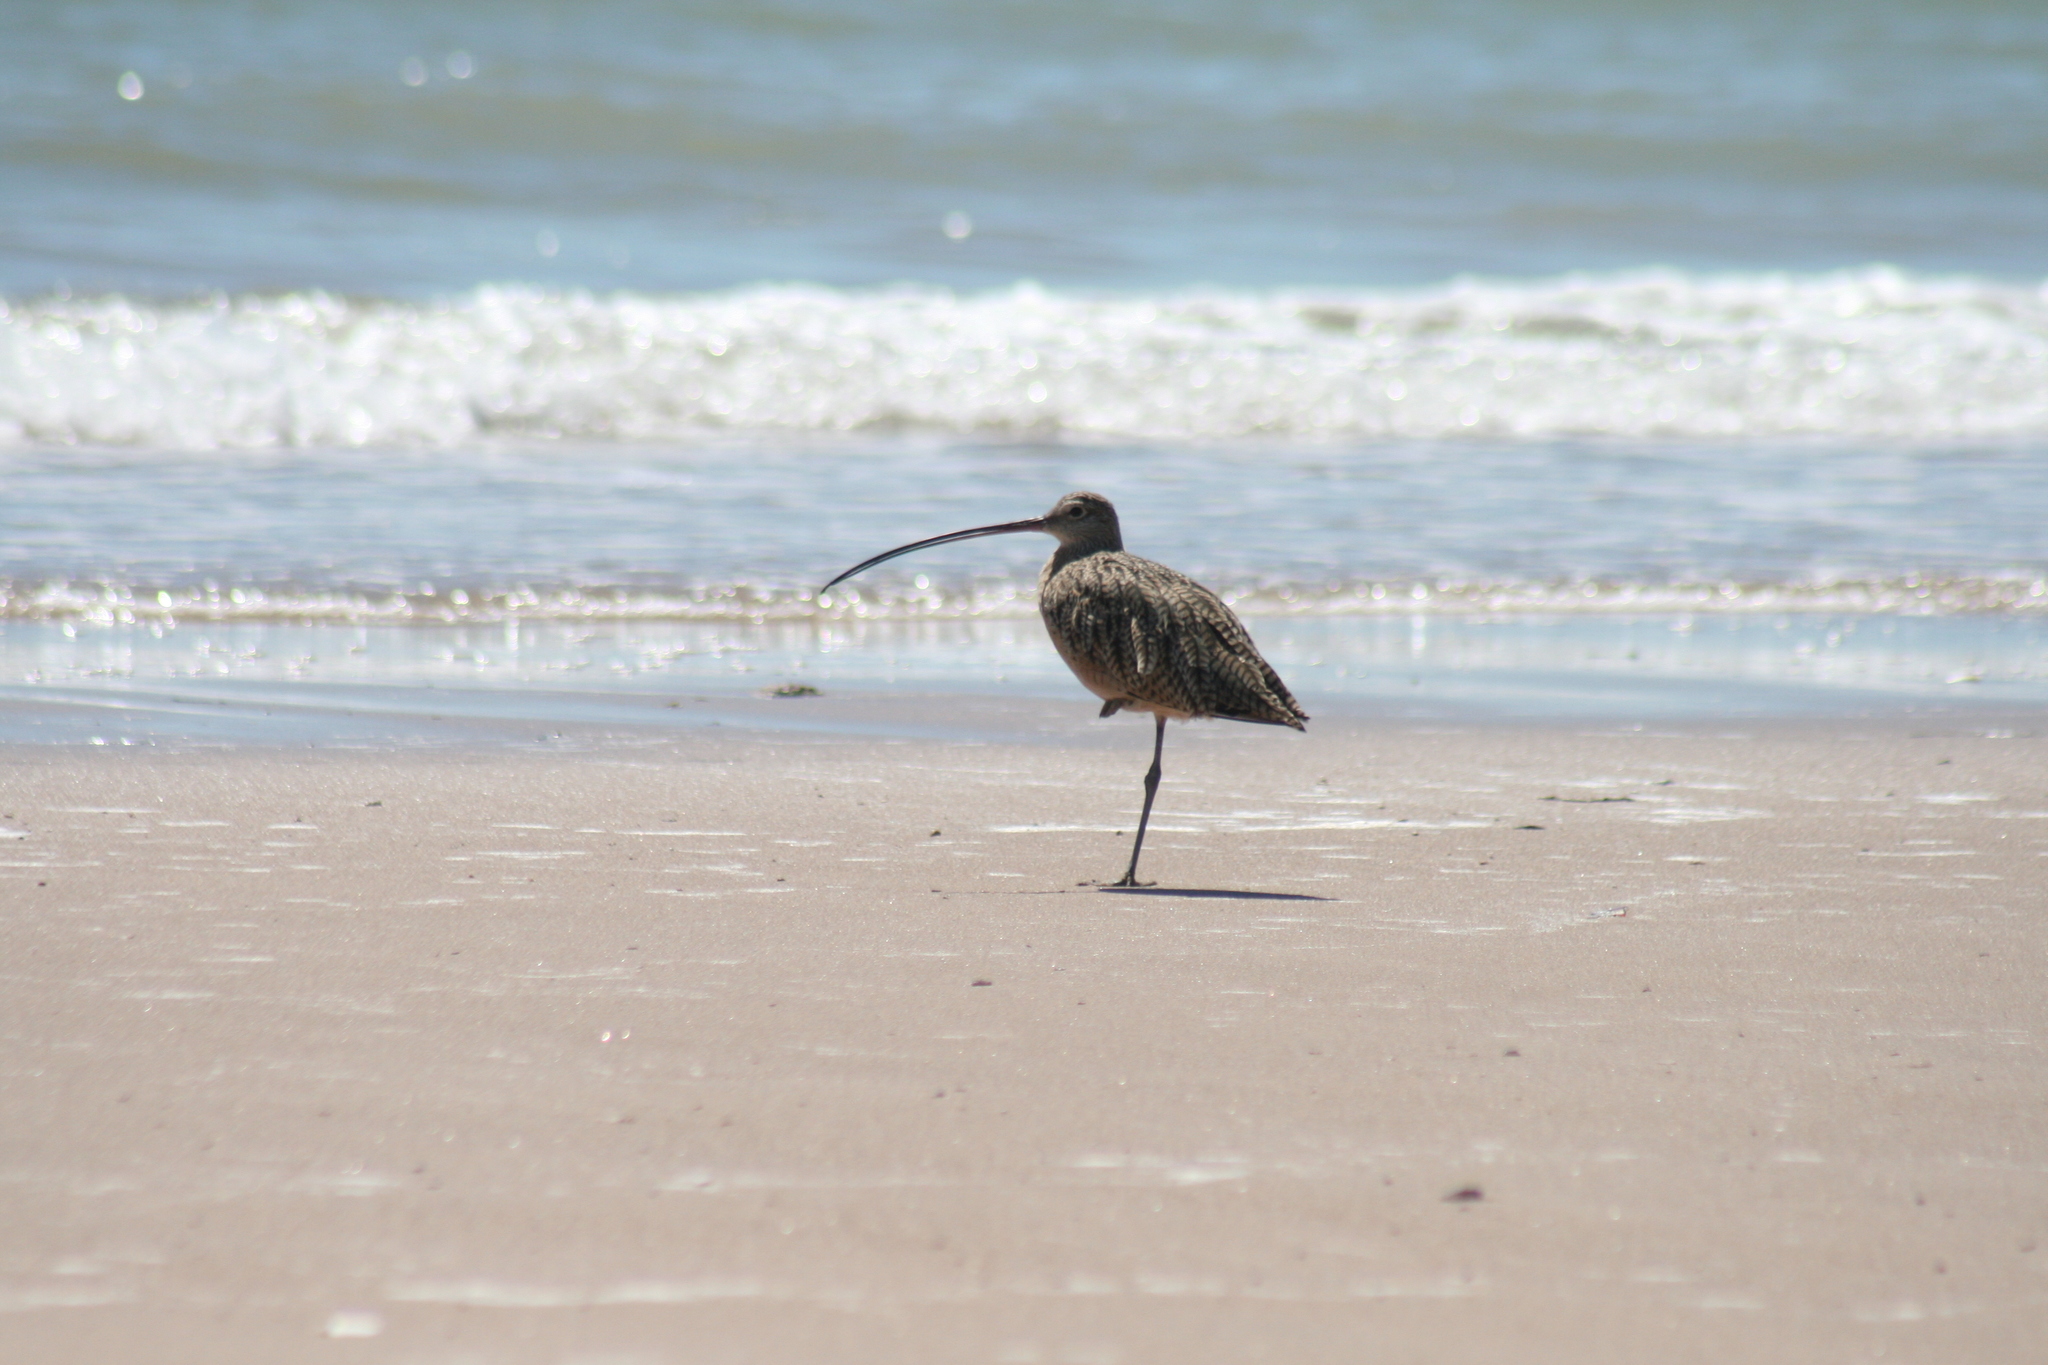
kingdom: Animalia
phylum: Chordata
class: Aves
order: Charadriiformes
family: Scolopacidae
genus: Numenius
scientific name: Numenius americanus
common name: Long-billed curlew
